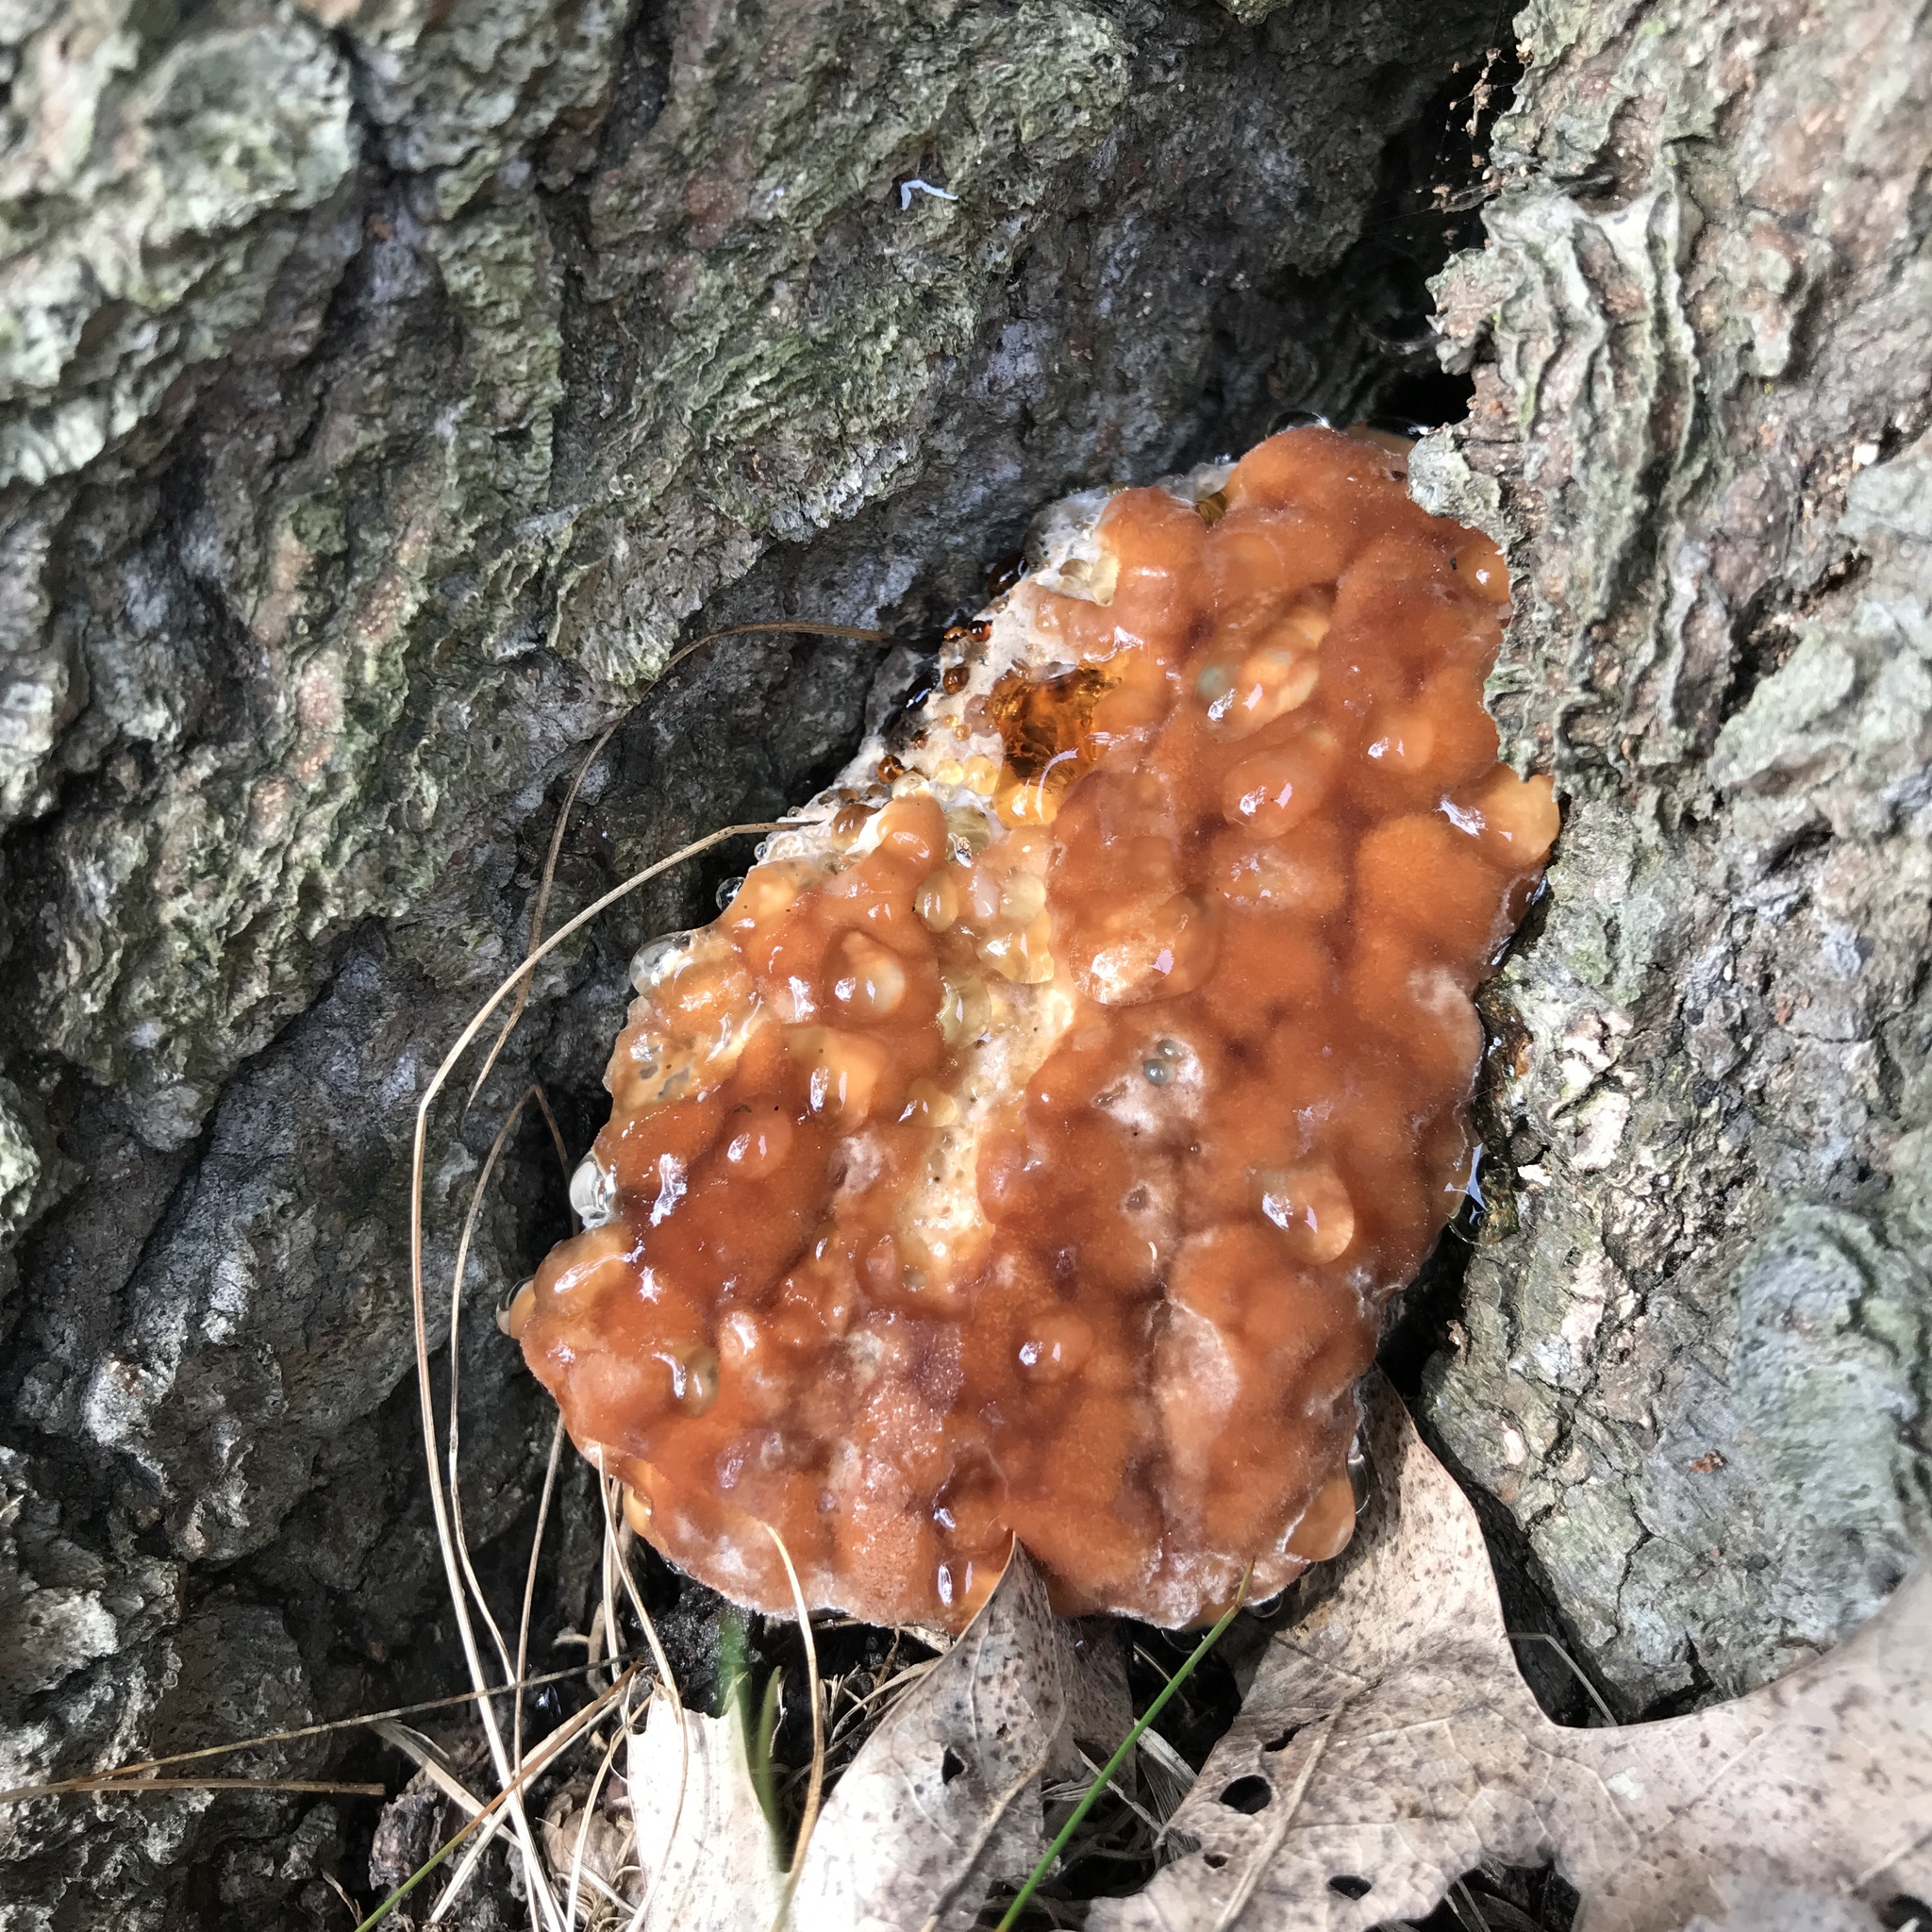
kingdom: Fungi
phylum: Basidiomycota
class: Agaricomycetes
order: Polyporales
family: Fomitopsidaceae
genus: Niveoporofomes
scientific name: Niveoporofomes spraguei
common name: Green cheese polypore
